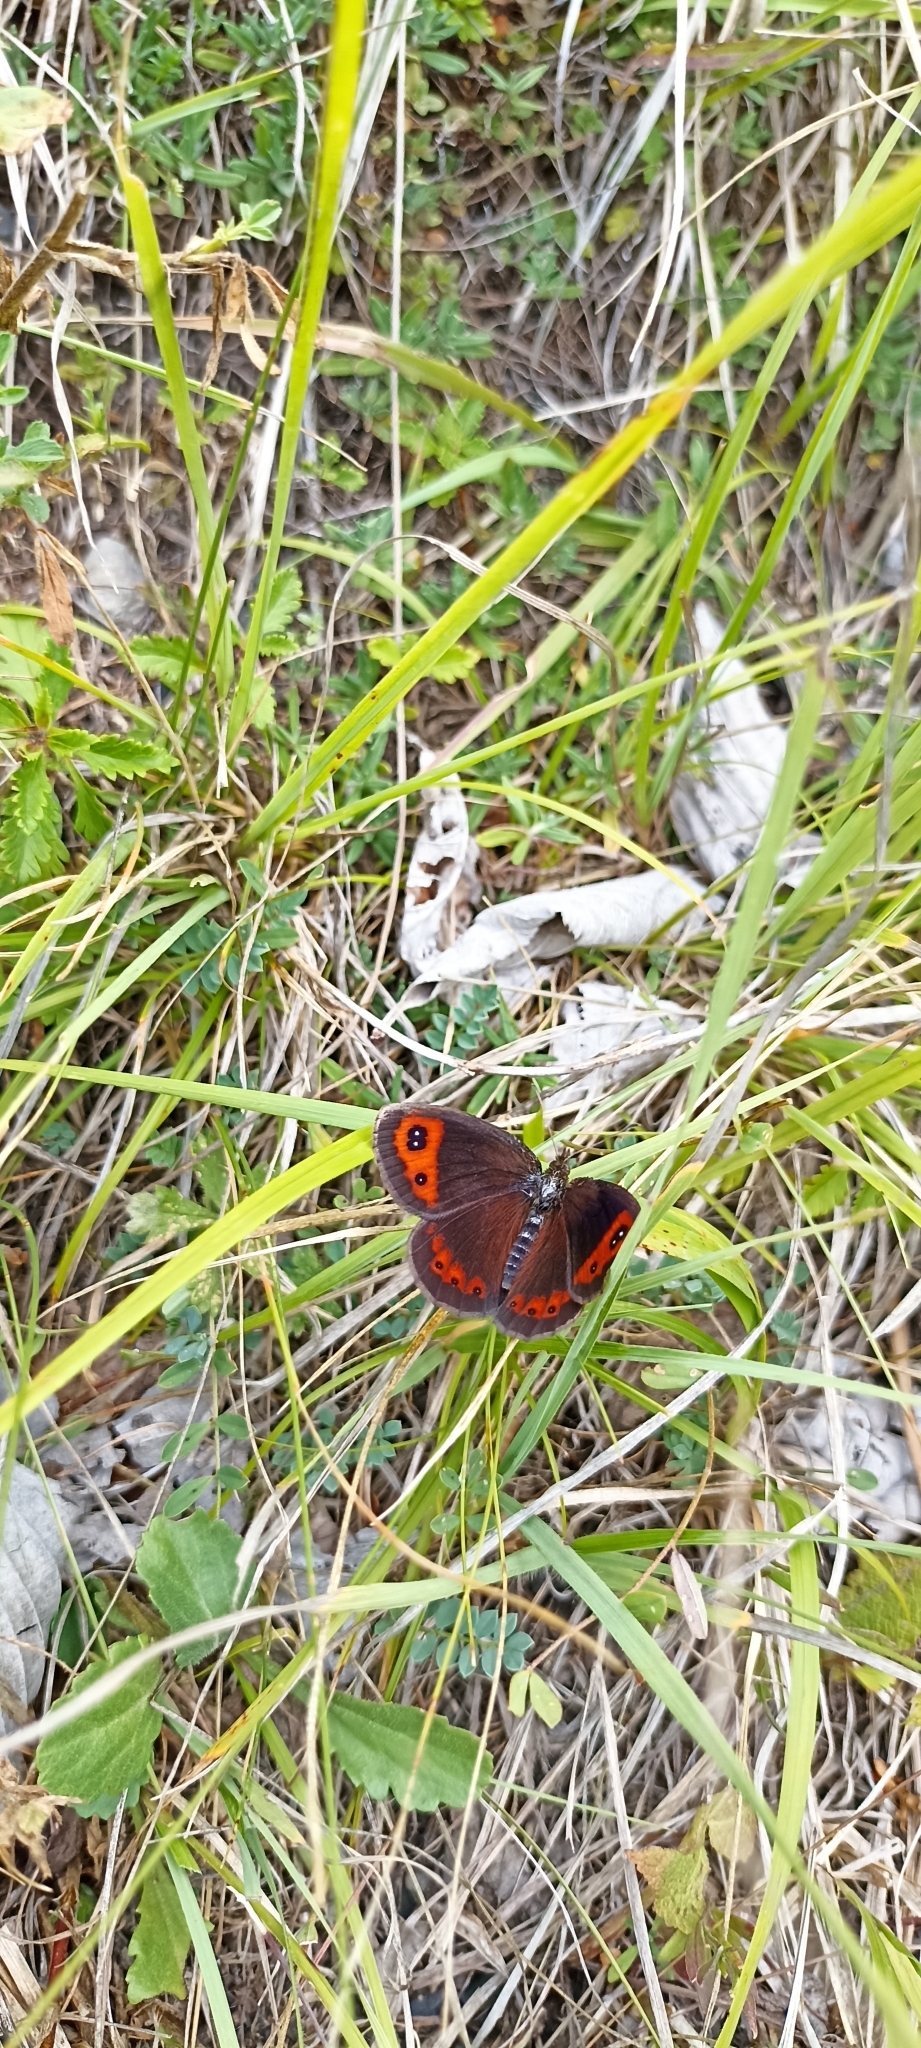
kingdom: Animalia
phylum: Arthropoda
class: Insecta
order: Lepidoptera
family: Nymphalidae
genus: Erebia
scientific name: Erebia neoridas
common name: Autumn ringlet
